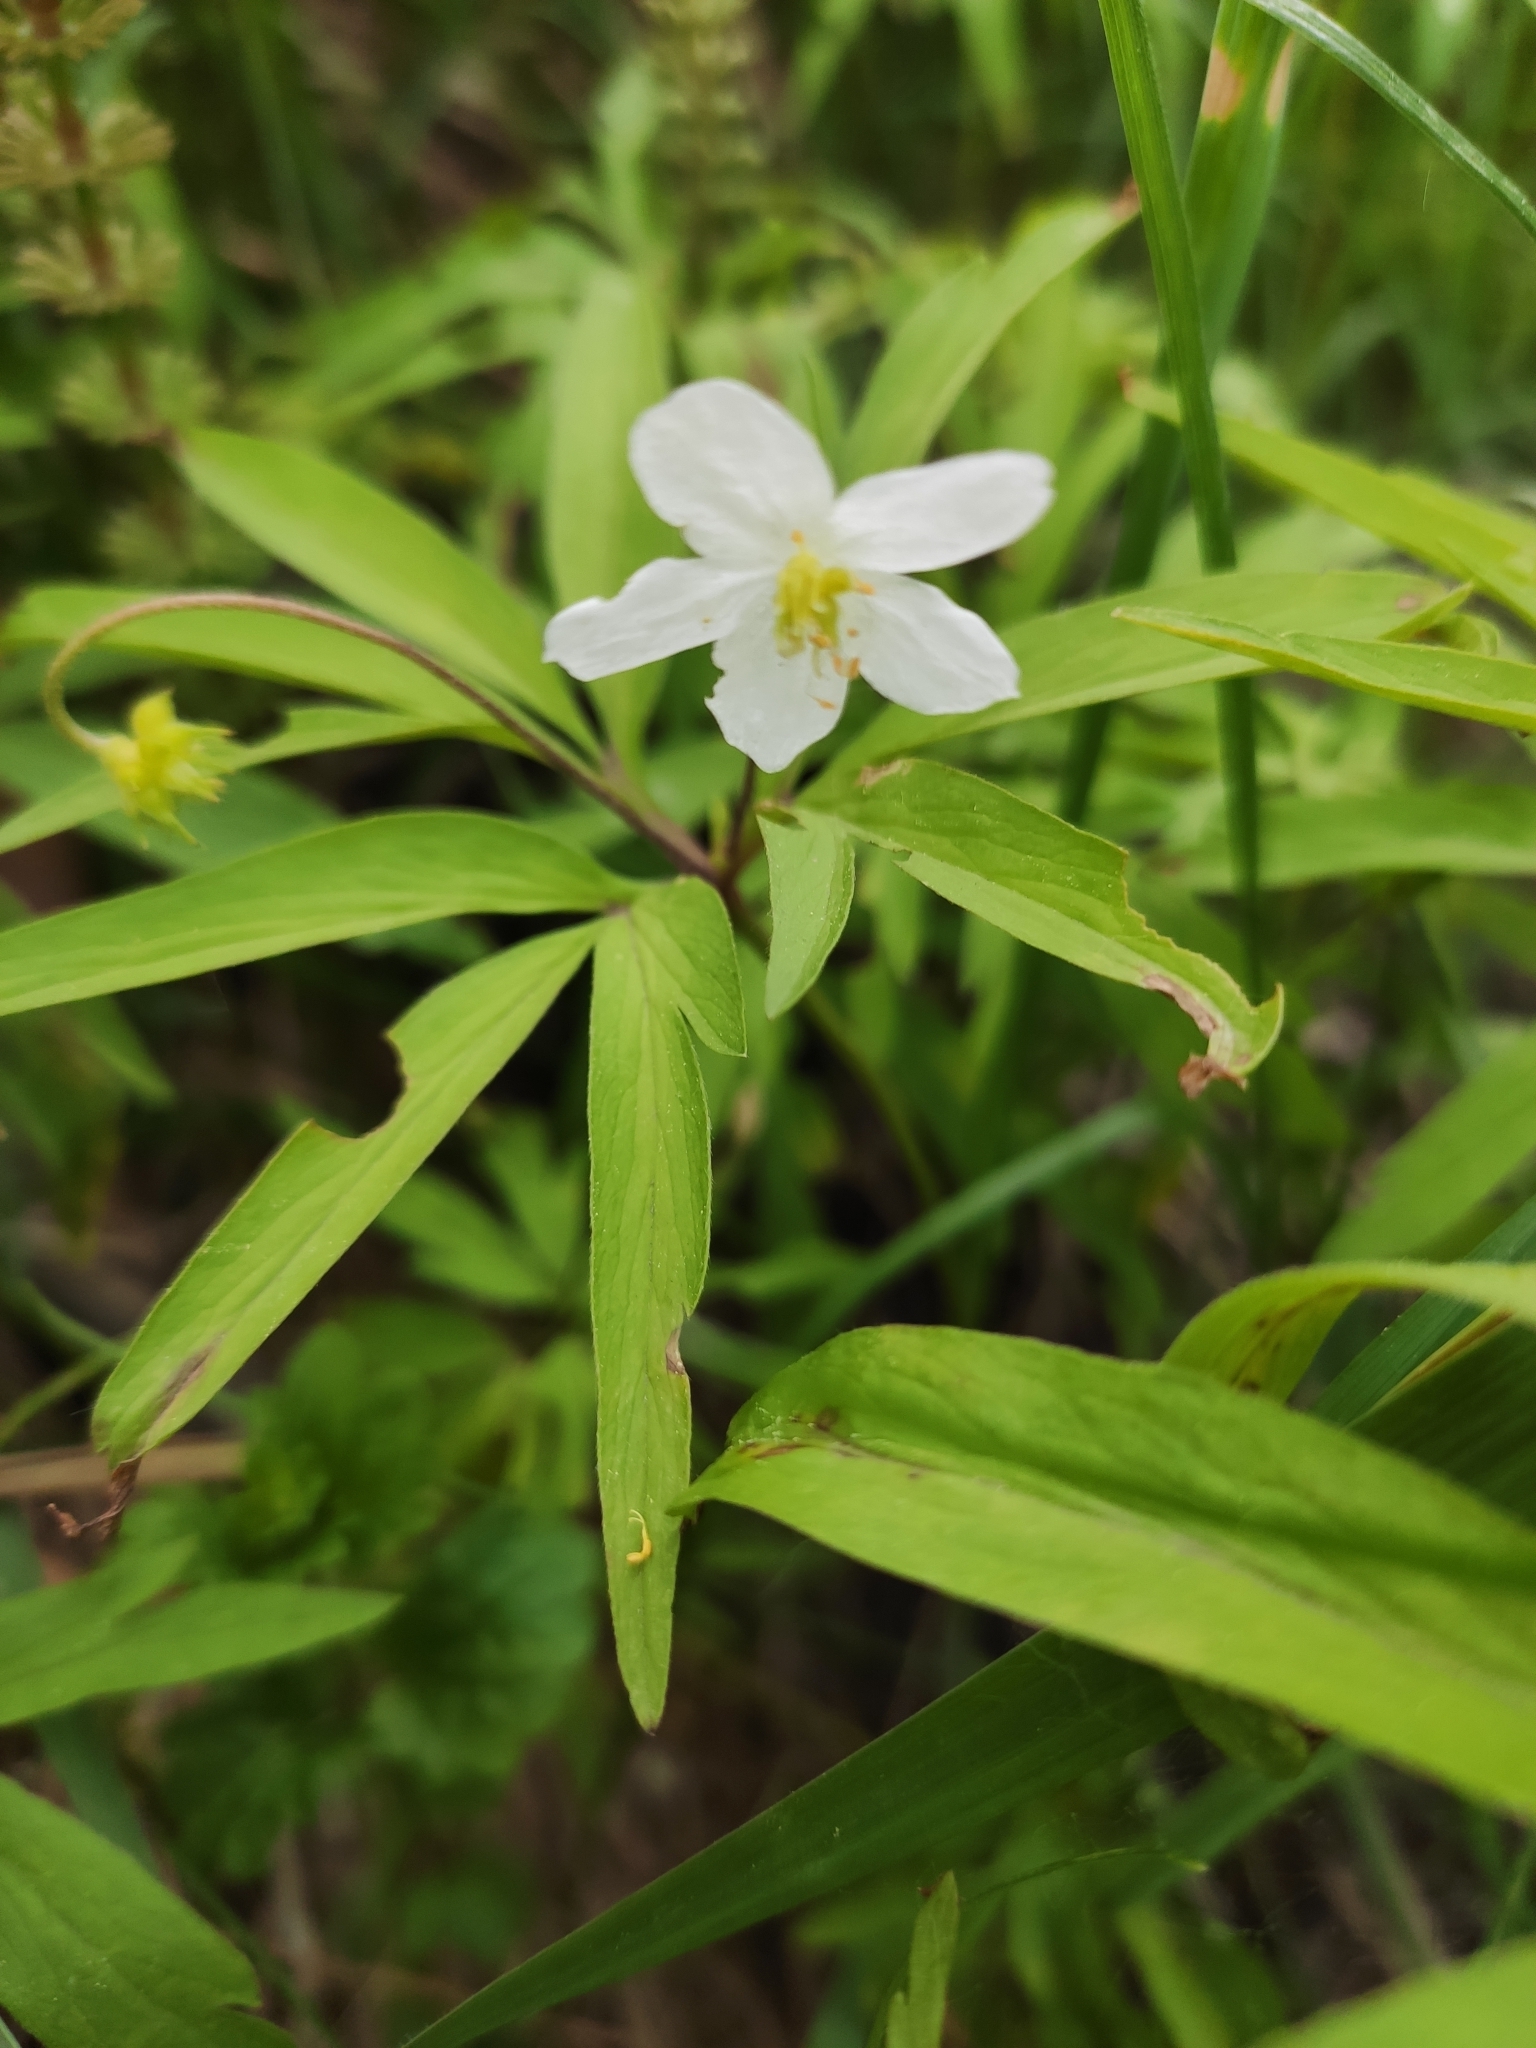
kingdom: Plantae
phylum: Tracheophyta
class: Magnoliopsida
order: Ranunculales
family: Ranunculaceae
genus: Anemone
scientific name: Anemone caerulea
